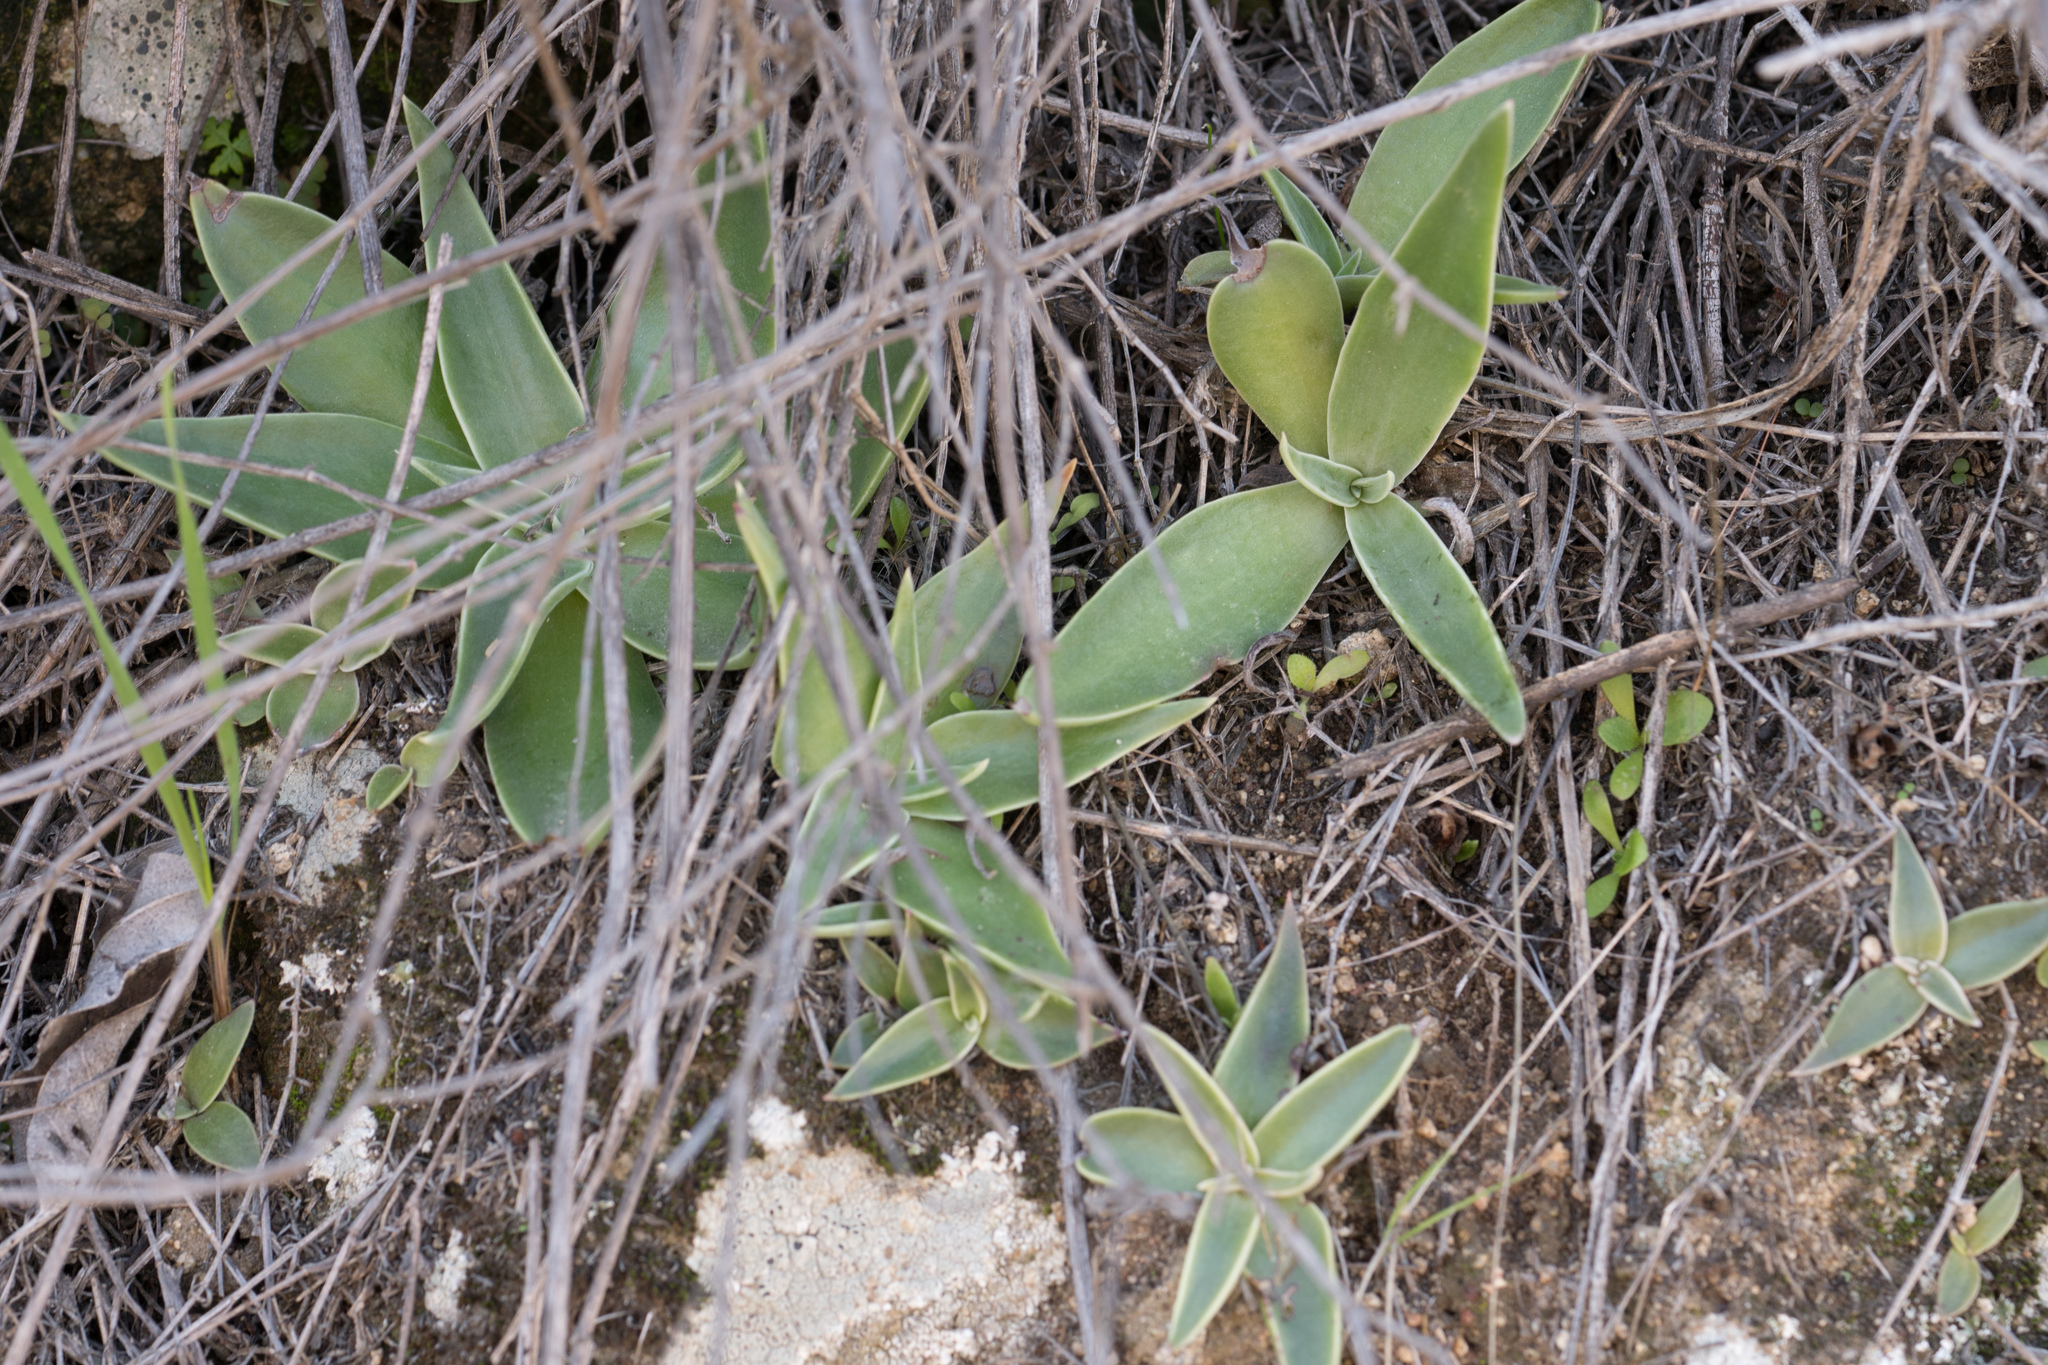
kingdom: Plantae
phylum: Tracheophyta
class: Magnoliopsida
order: Saxifragales
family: Crassulaceae
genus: Dudleya
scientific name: Dudleya lanceolata
